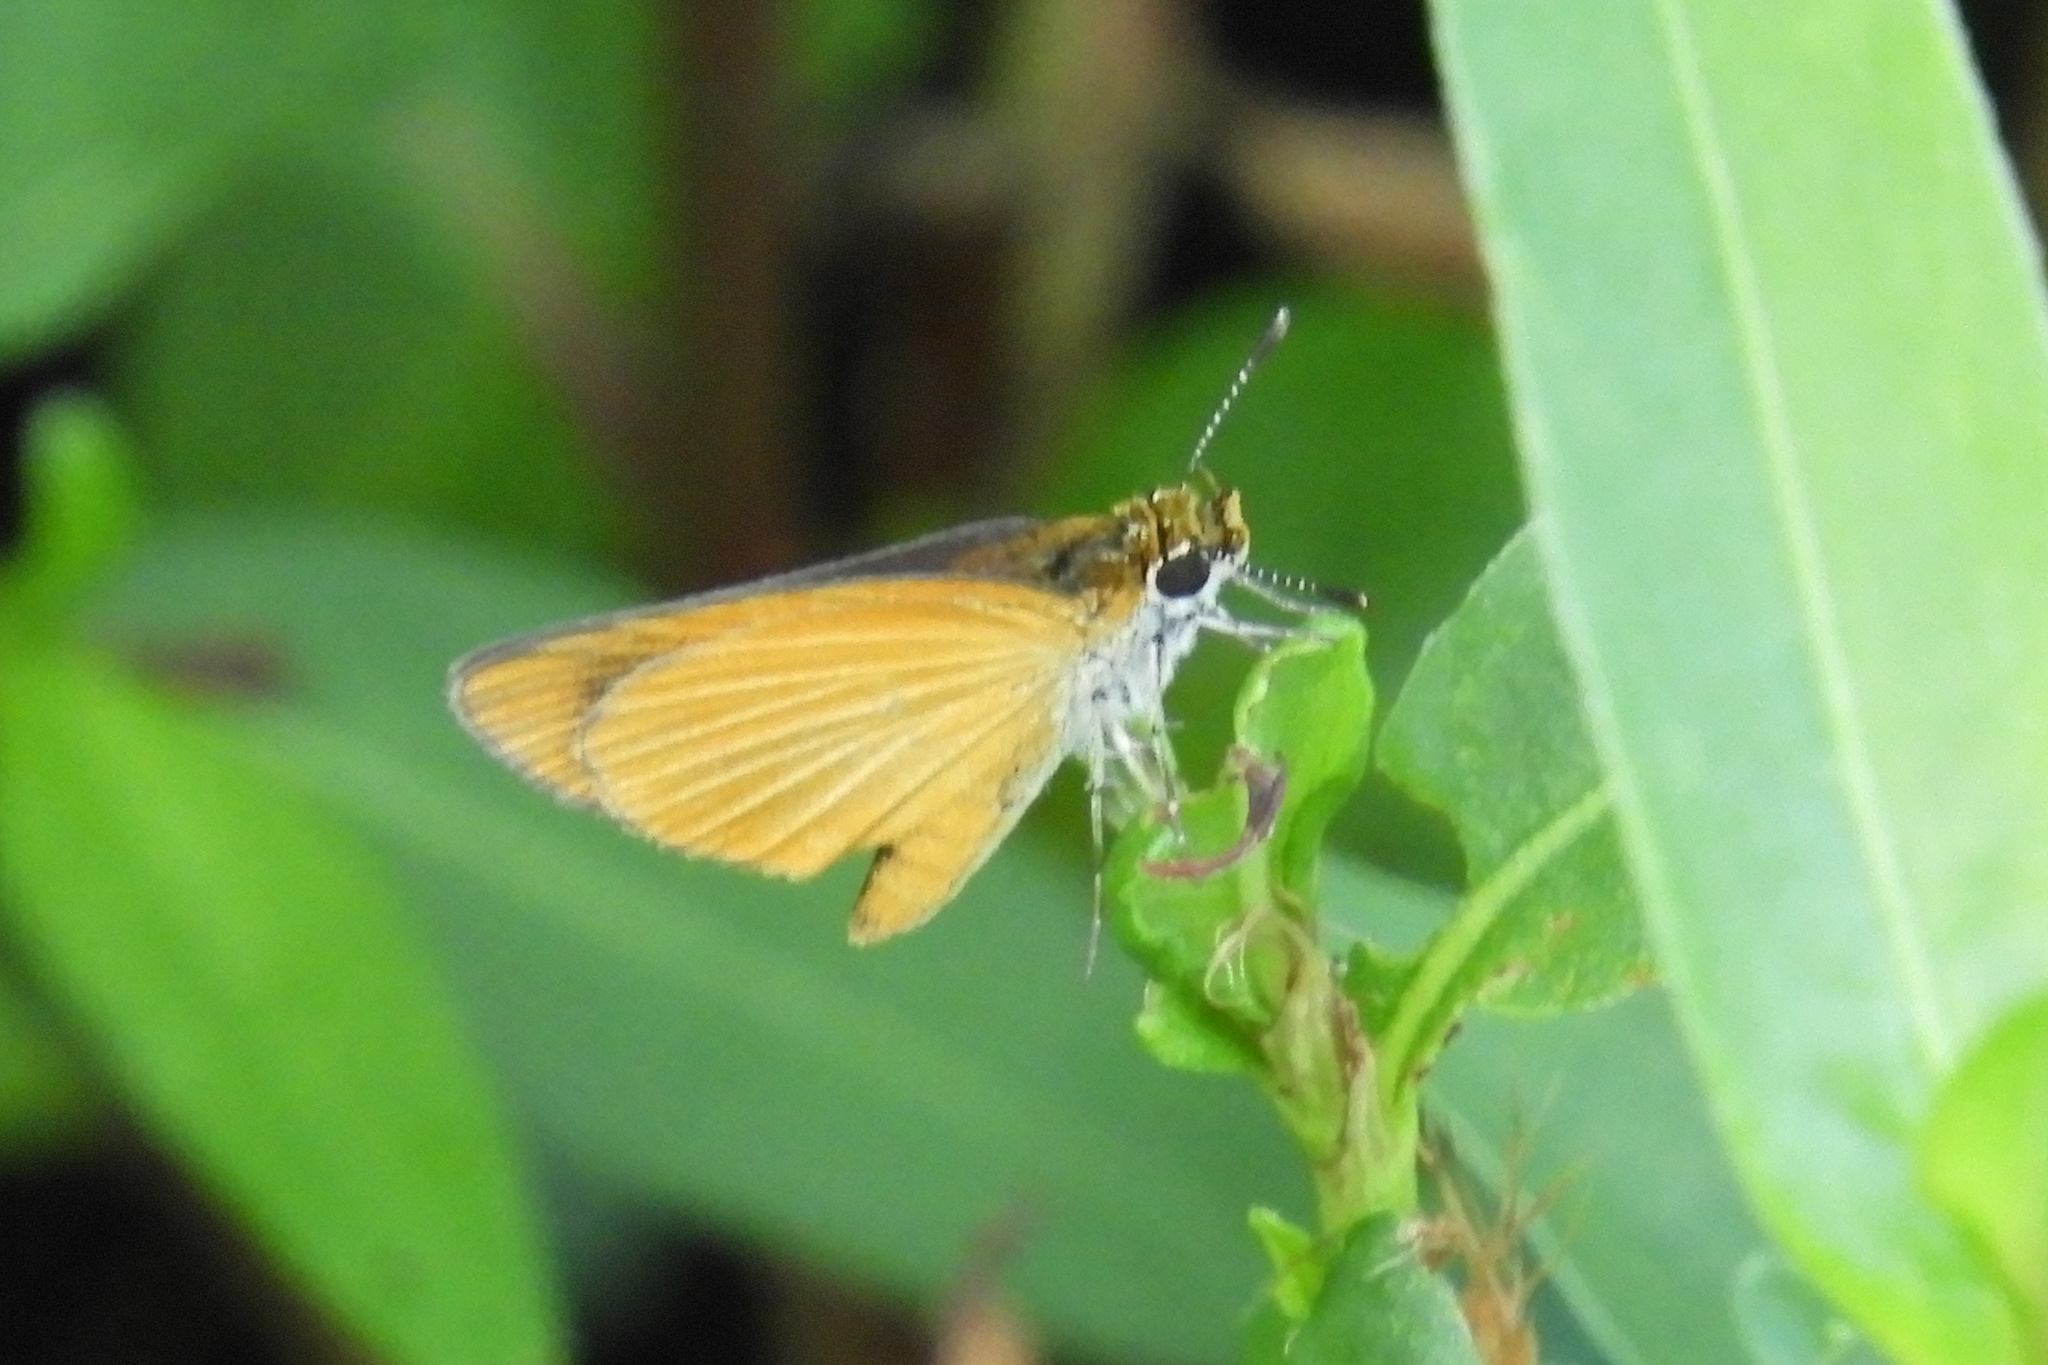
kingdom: Animalia
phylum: Arthropoda
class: Insecta
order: Lepidoptera
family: Hesperiidae
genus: Ancyloxypha
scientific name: Ancyloxypha numitor
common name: Least skipper
